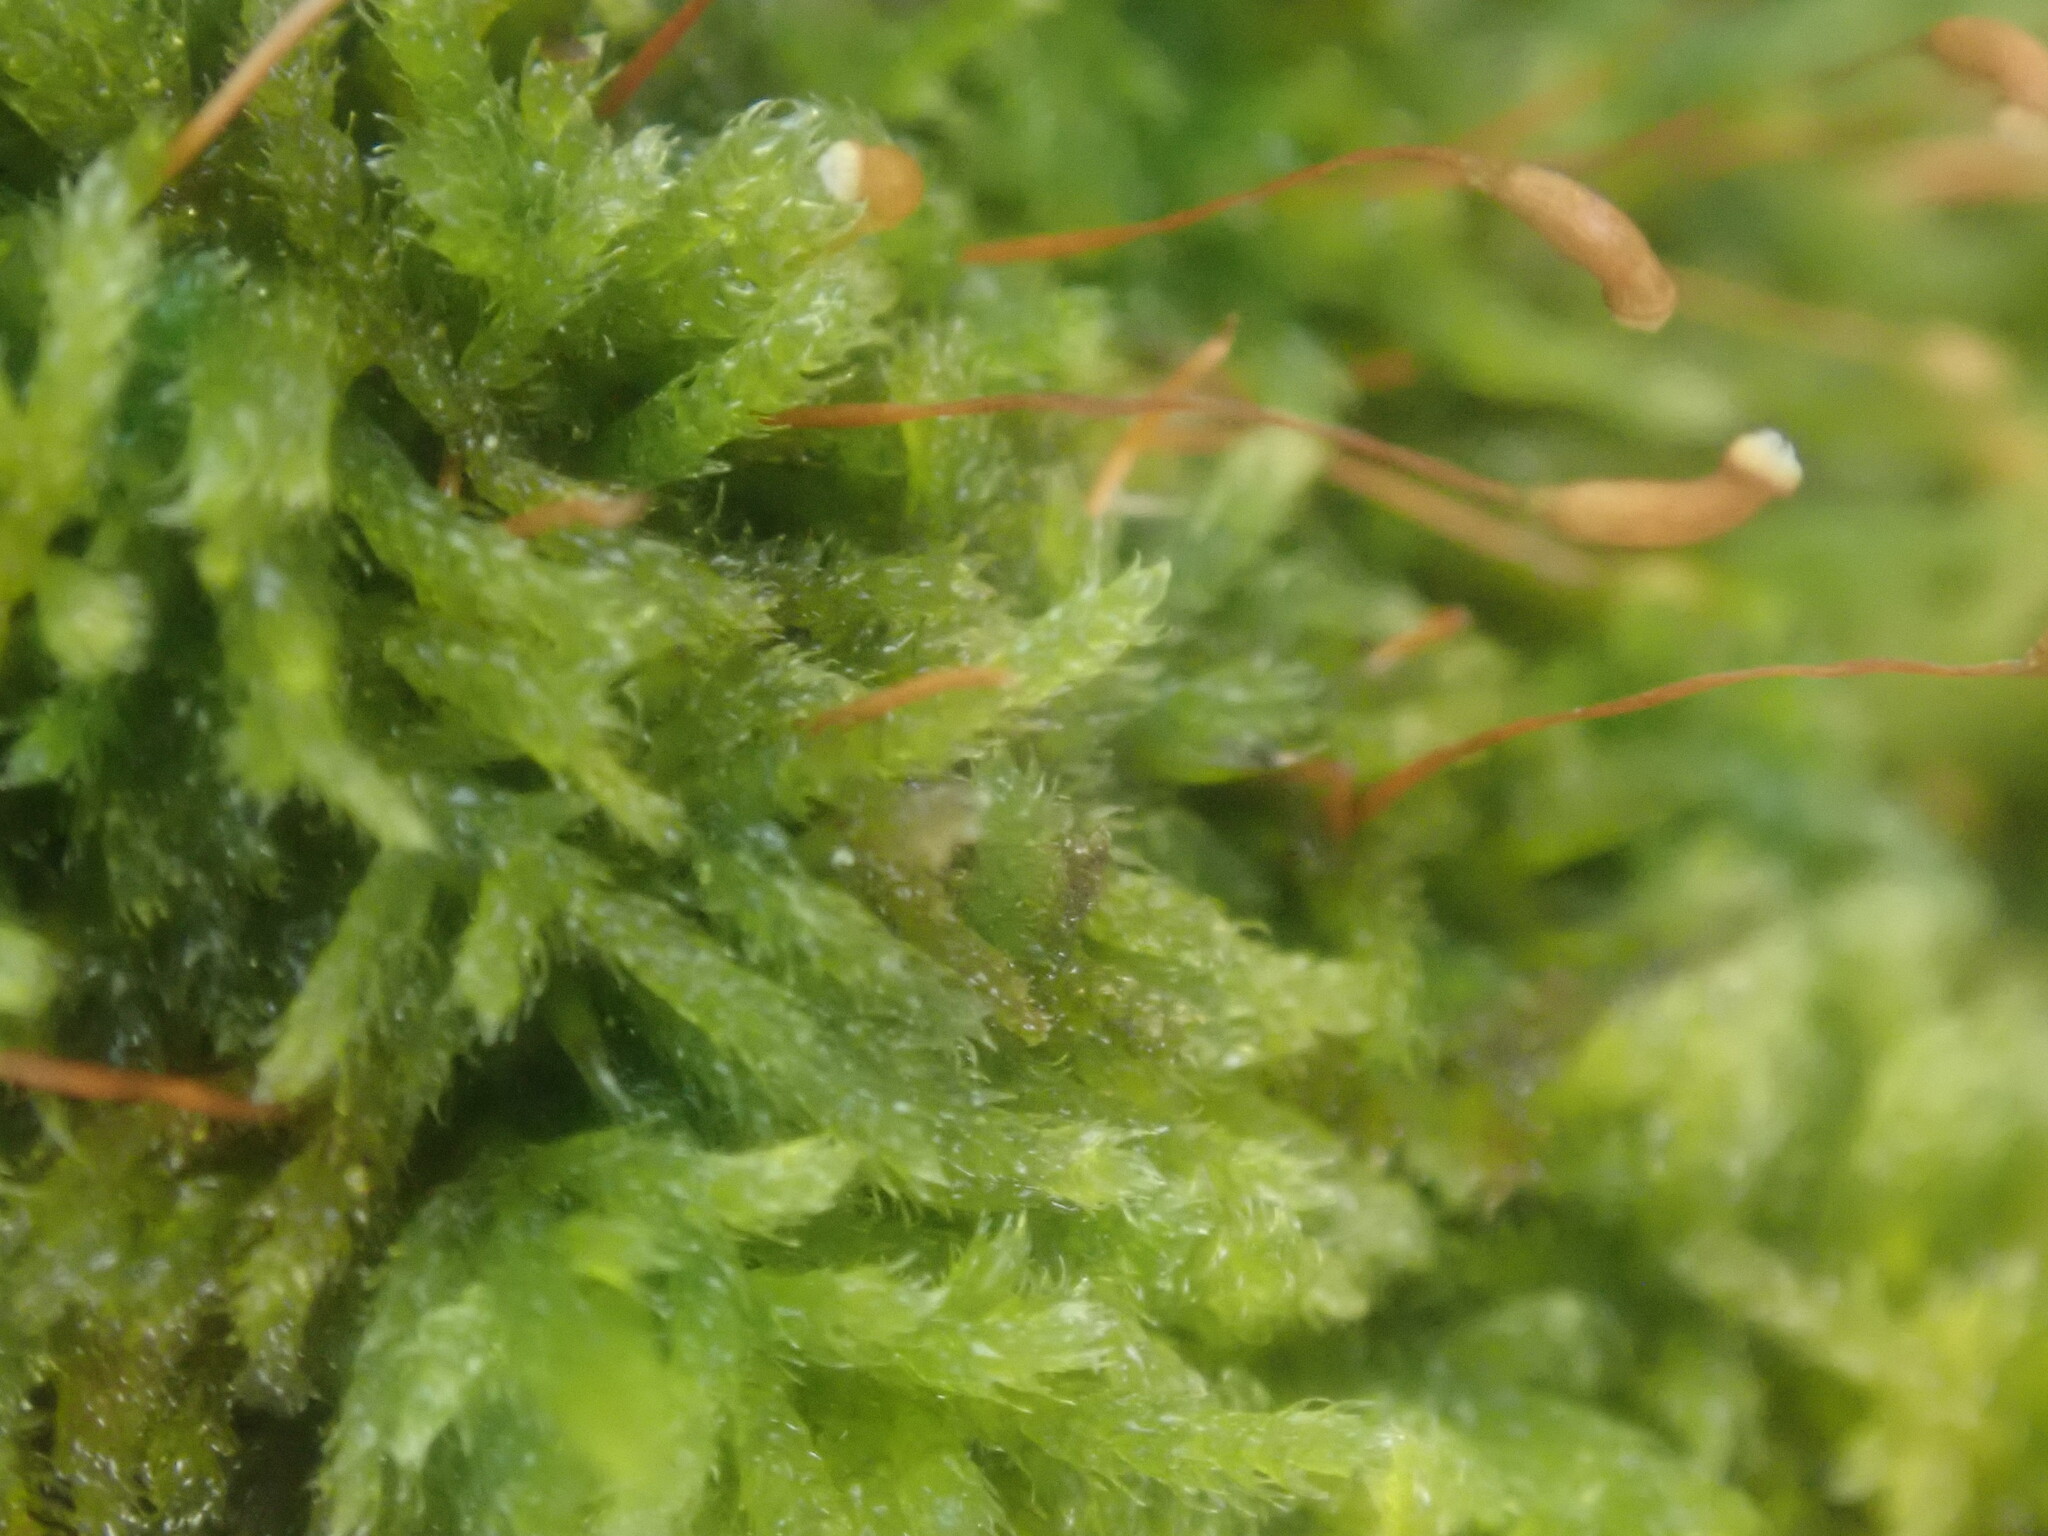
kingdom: Plantae
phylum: Bryophyta
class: Bryopsida
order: Hypnales
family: Callicladiaceae
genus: Callicladium
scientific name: Callicladium haldanianum
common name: Beautiful branch moss
